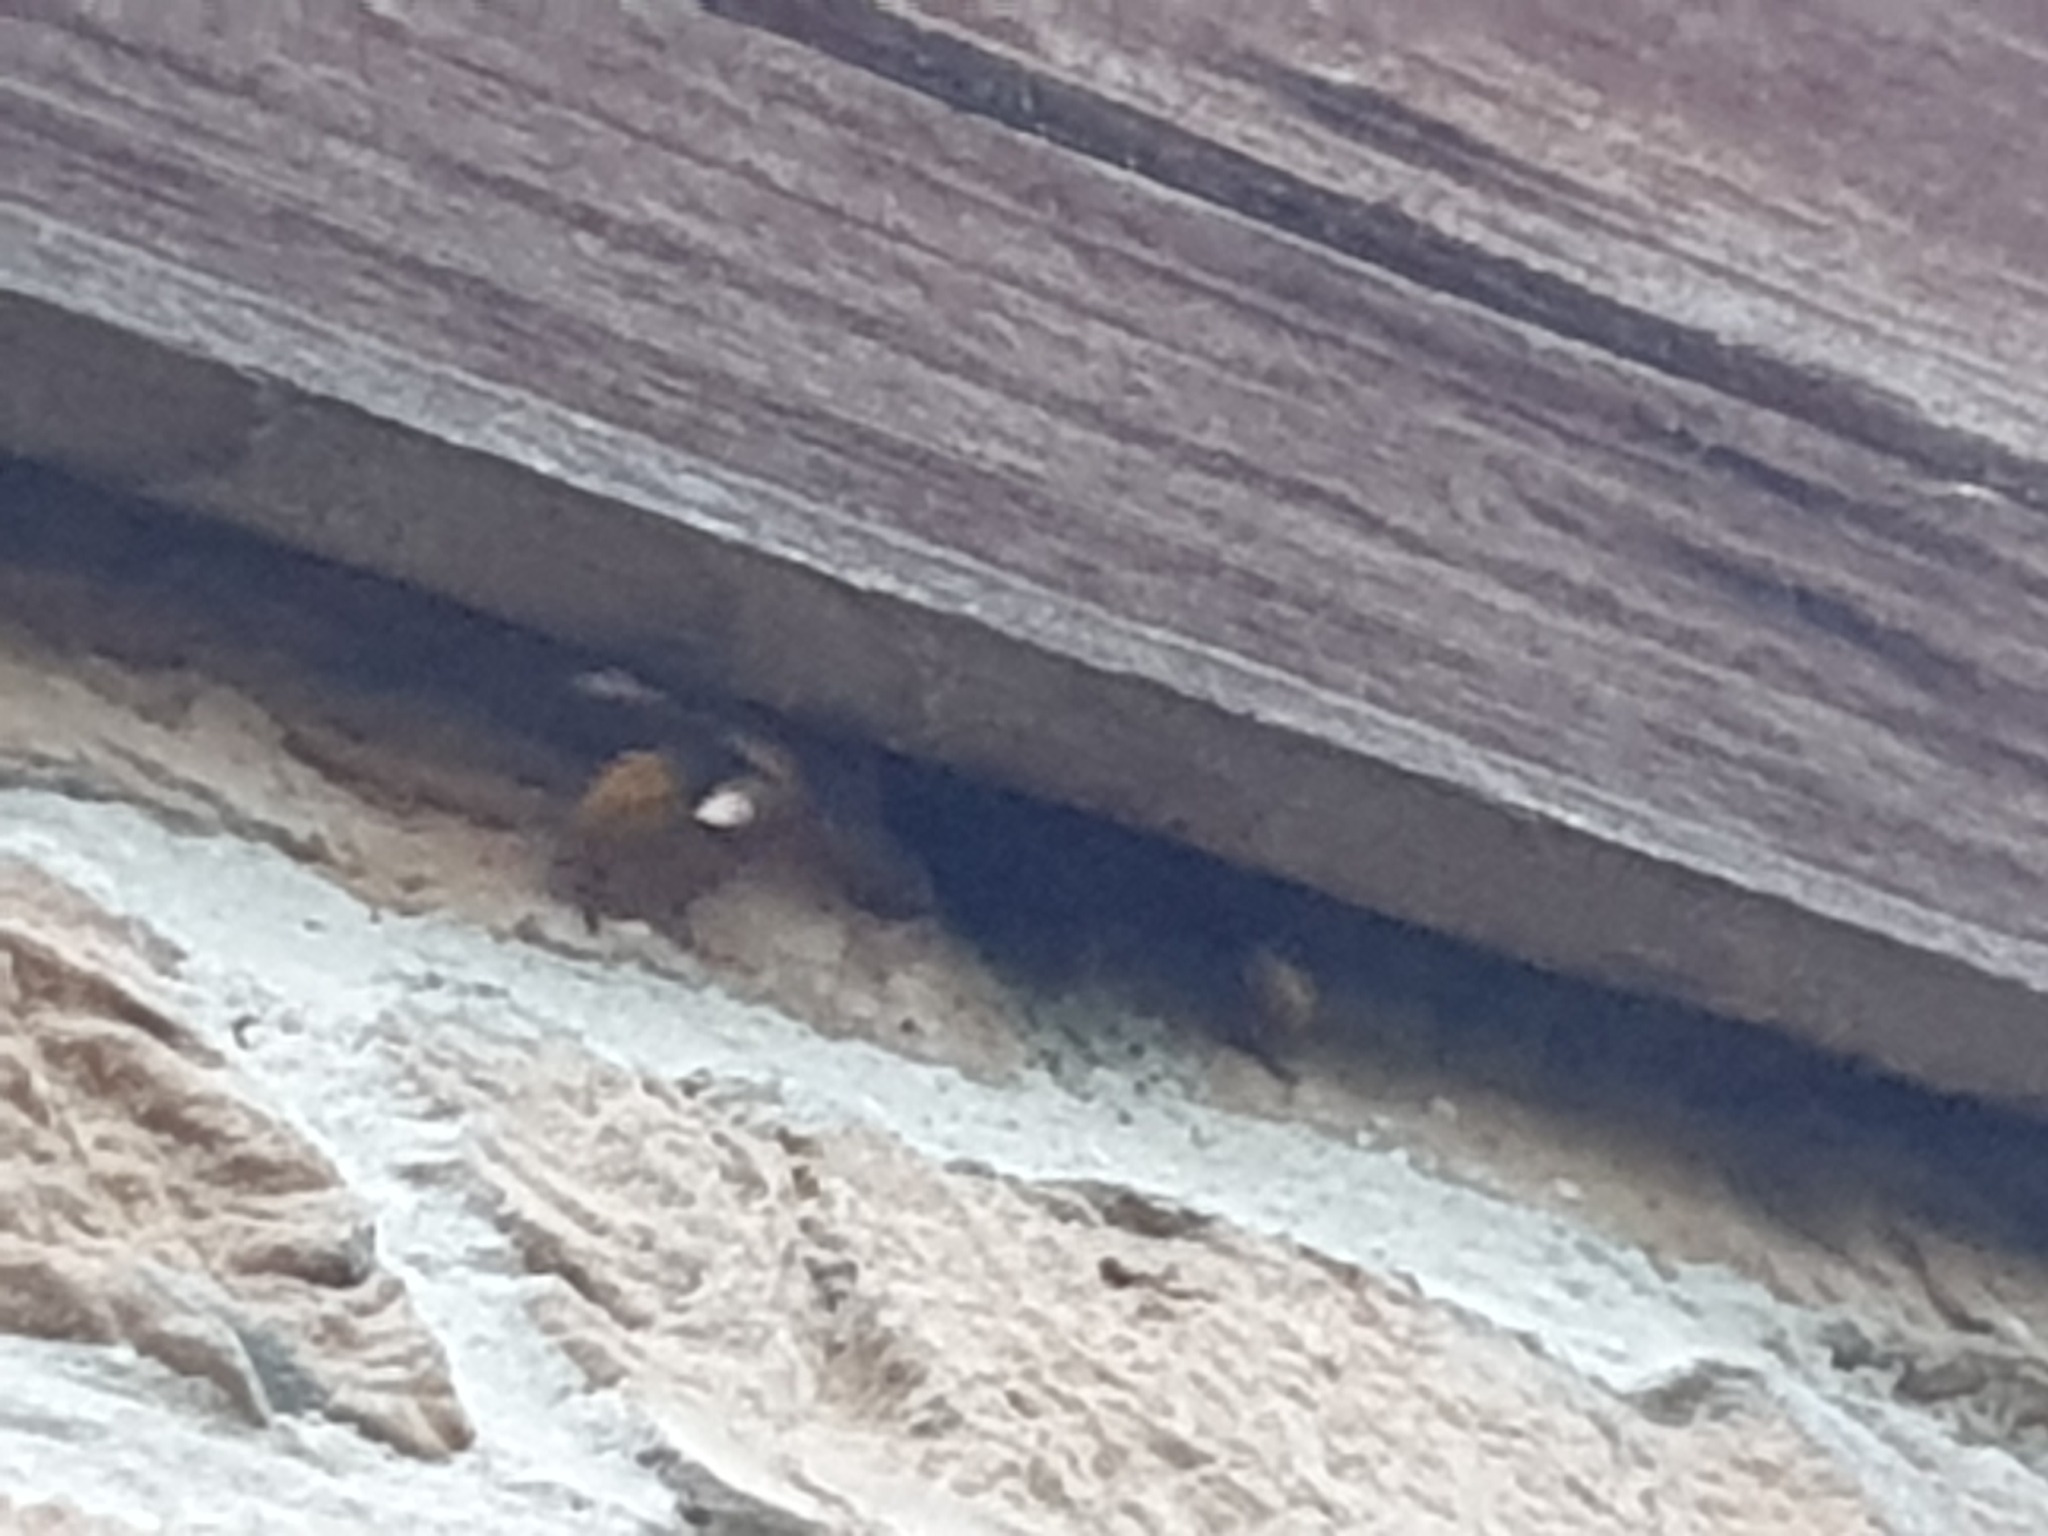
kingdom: Animalia
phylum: Arthropoda
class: Insecta
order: Hymenoptera
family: Vespidae
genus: Vespa
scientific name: Vespa crabro
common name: Hornet
